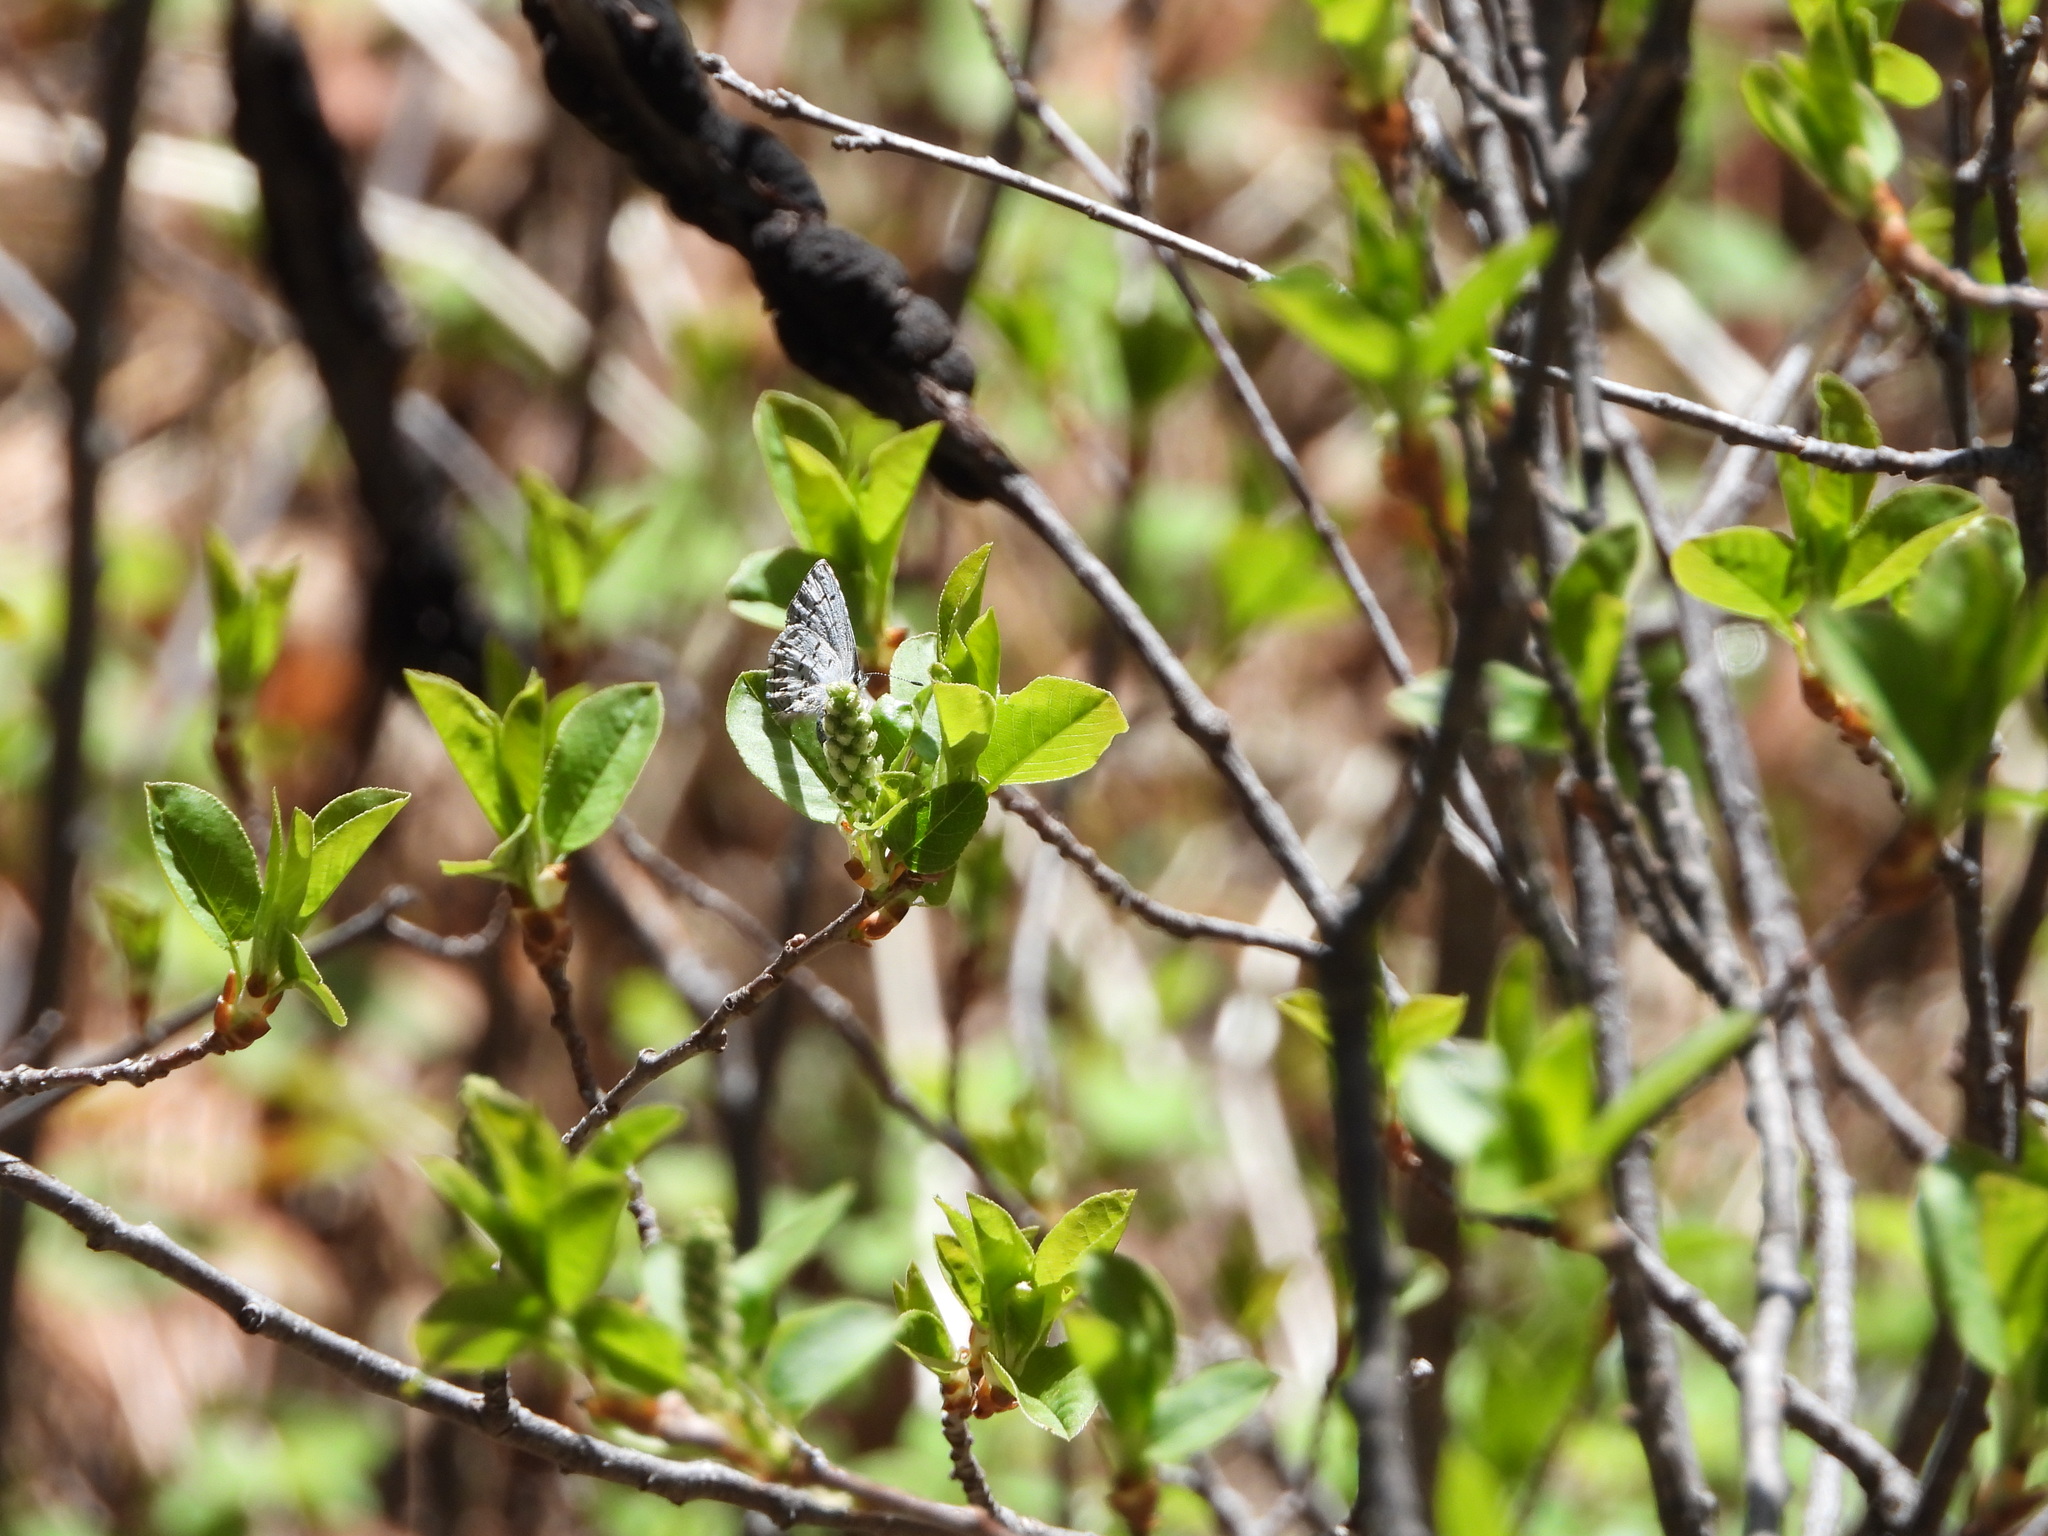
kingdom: Animalia
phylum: Arthropoda
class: Insecta
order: Lepidoptera
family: Lycaenidae
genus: Celastrina
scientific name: Celastrina ladon
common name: Spring azure
